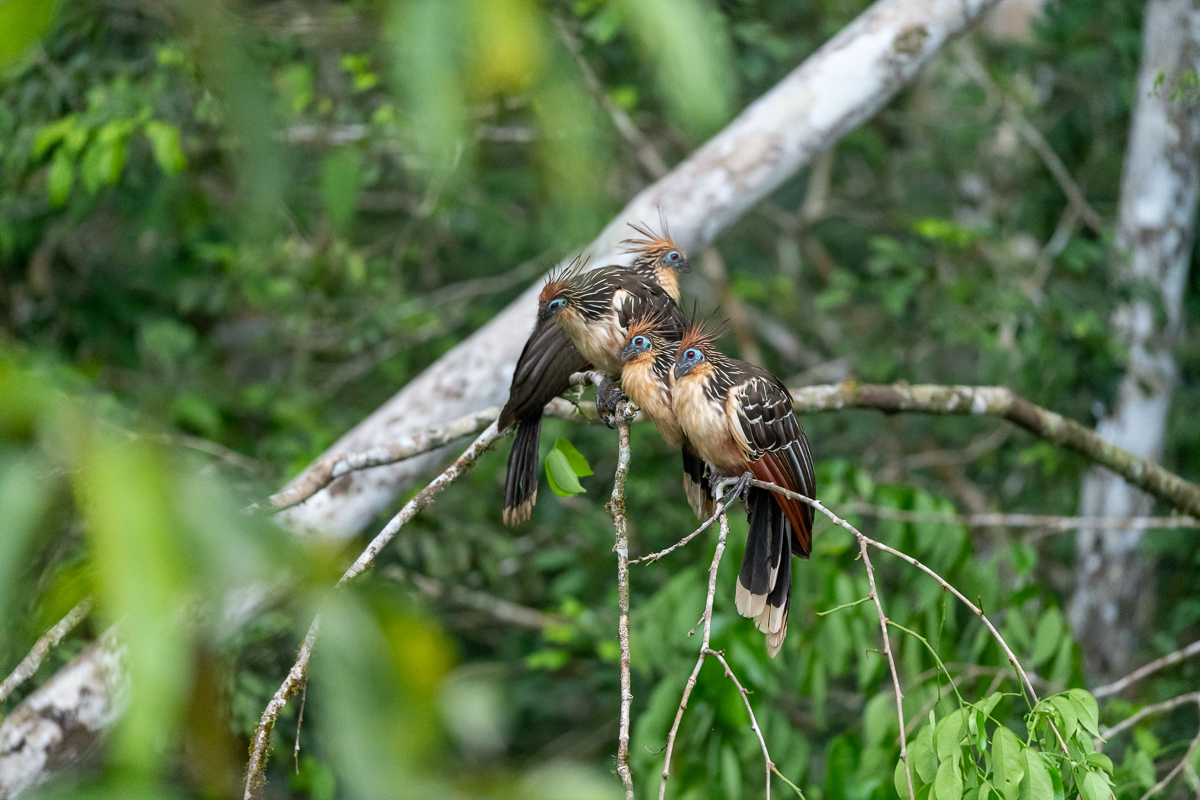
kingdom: Animalia
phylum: Chordata
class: Aves
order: Opisthocomiformes
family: Opisthocomidae
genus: Opisthocomus
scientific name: Opisthocomus hoazin
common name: Hoatzin
